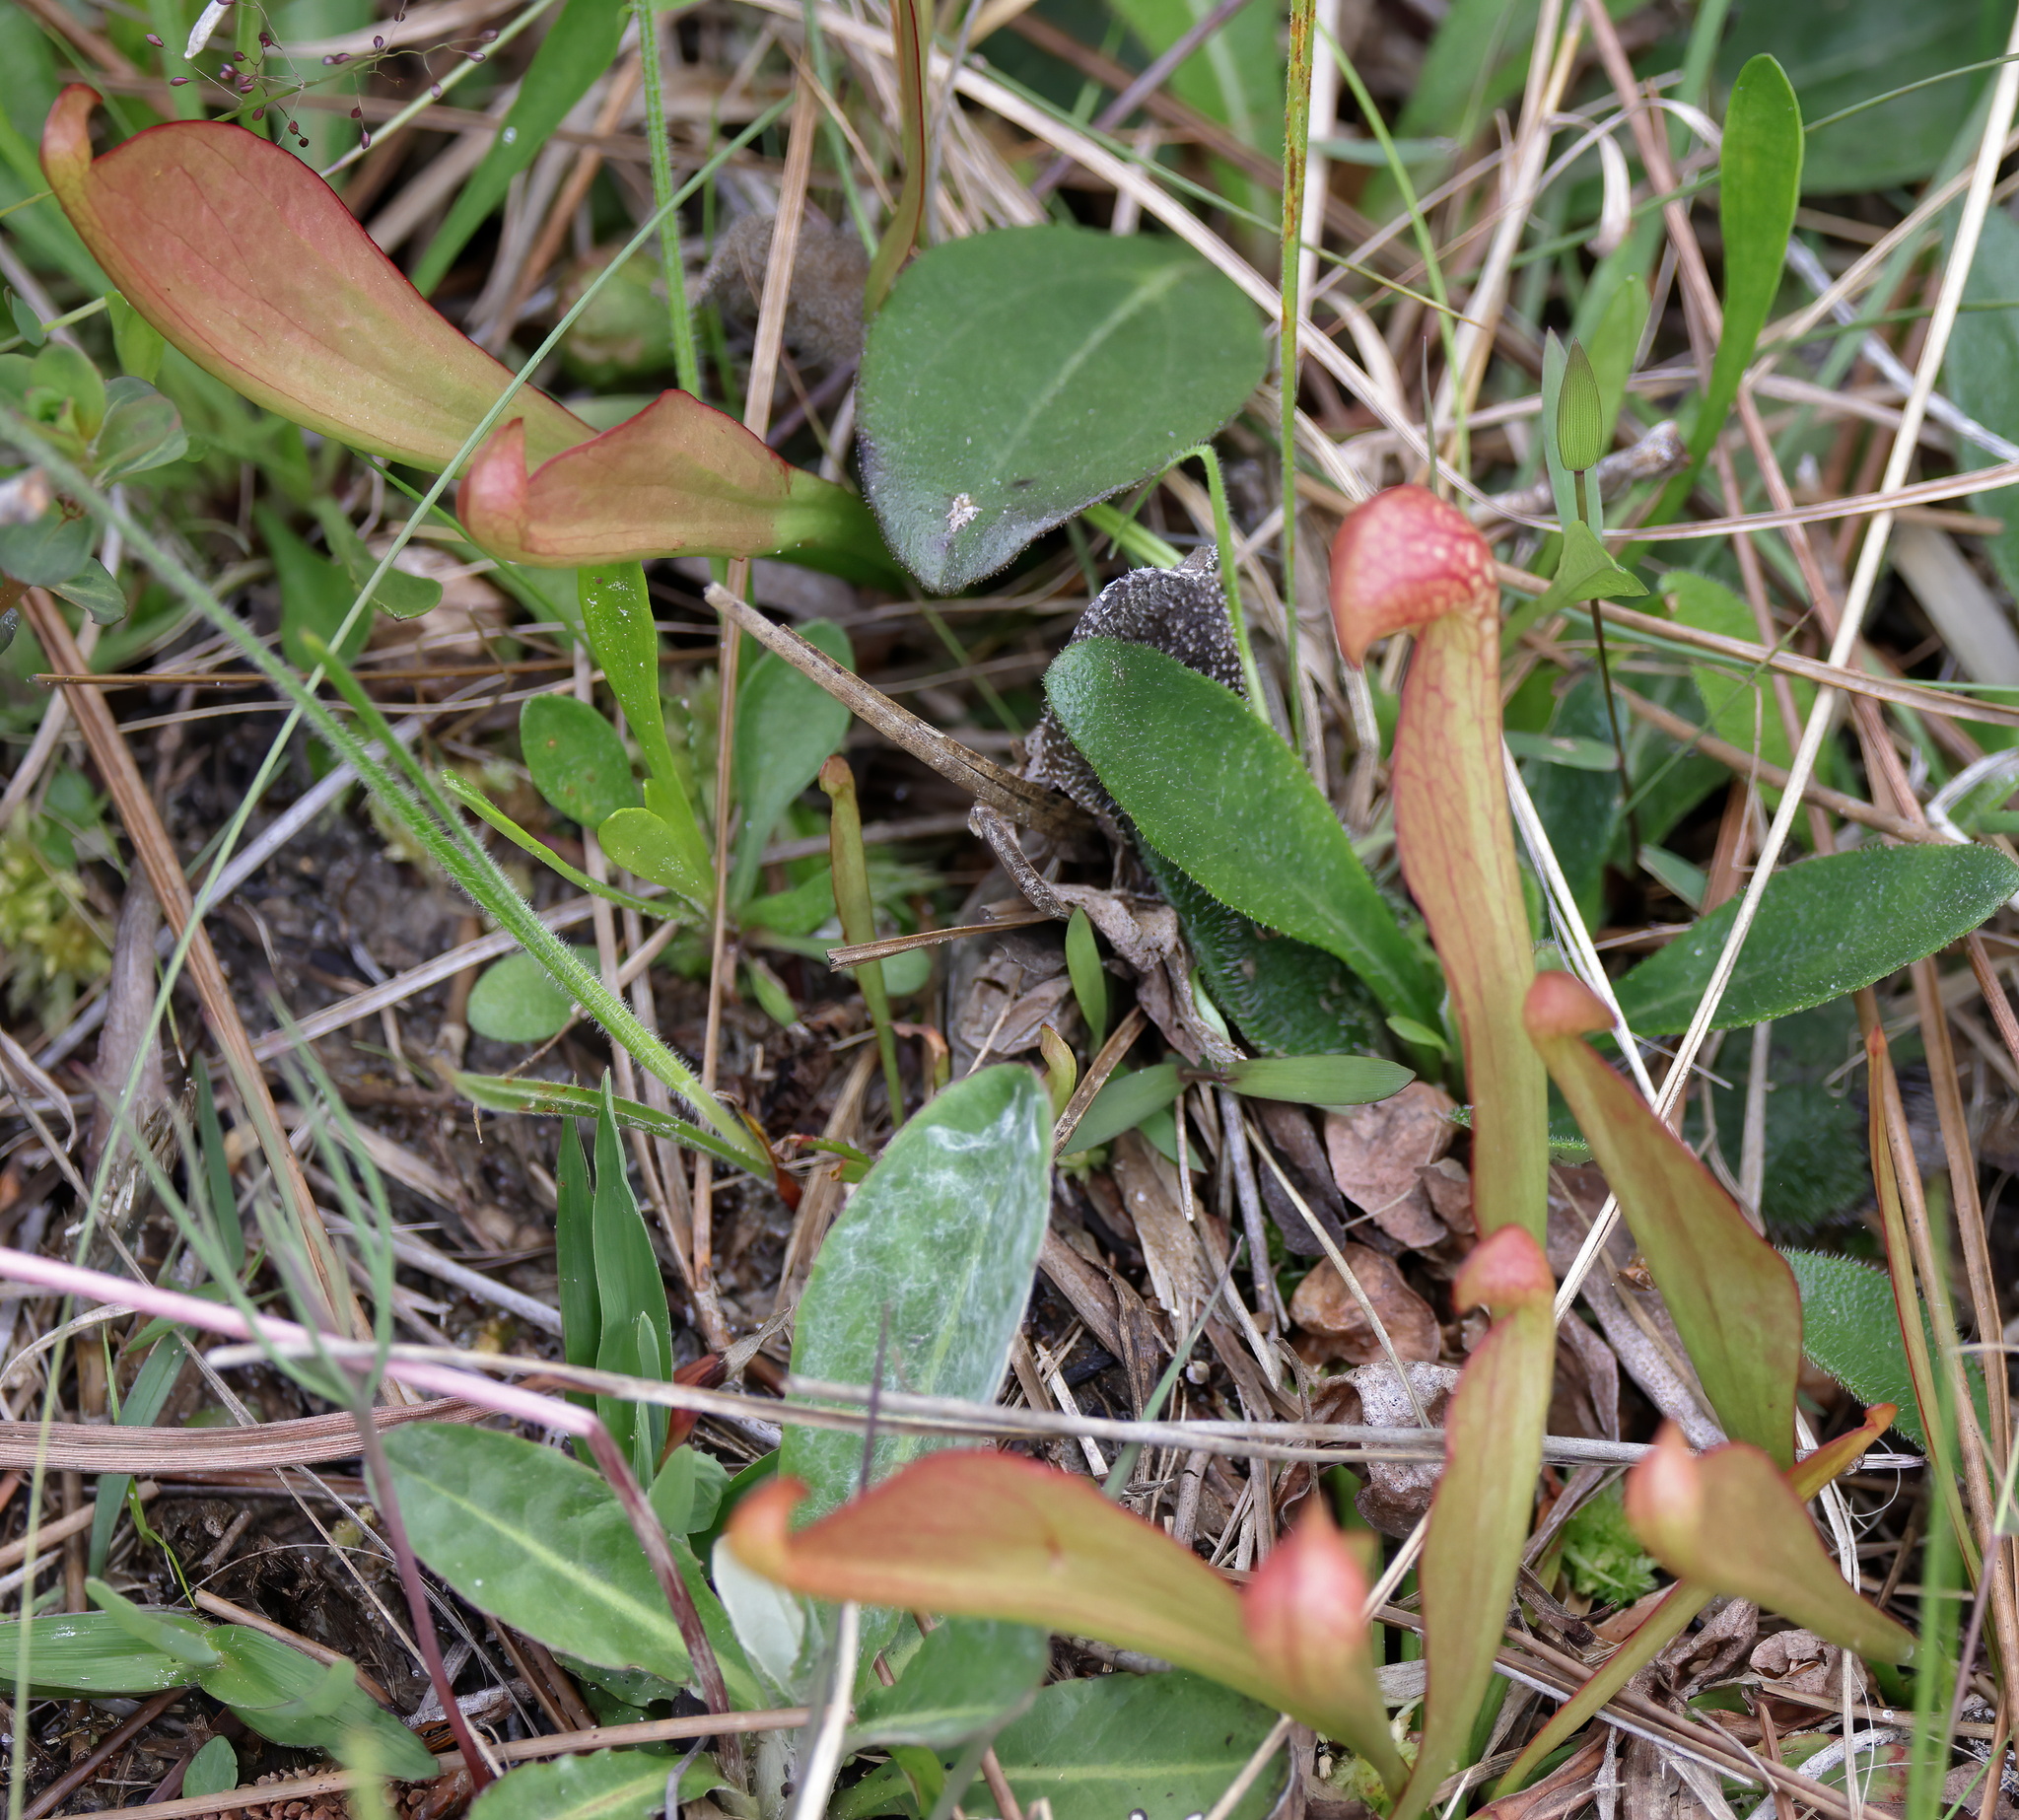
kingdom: Plantae
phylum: Tracheophyta
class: Magnoliopsida
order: Ericales
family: Sarraceniaceae
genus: Sarracenia
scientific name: Sarracenia psittacina
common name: Parrot pitcherplant
